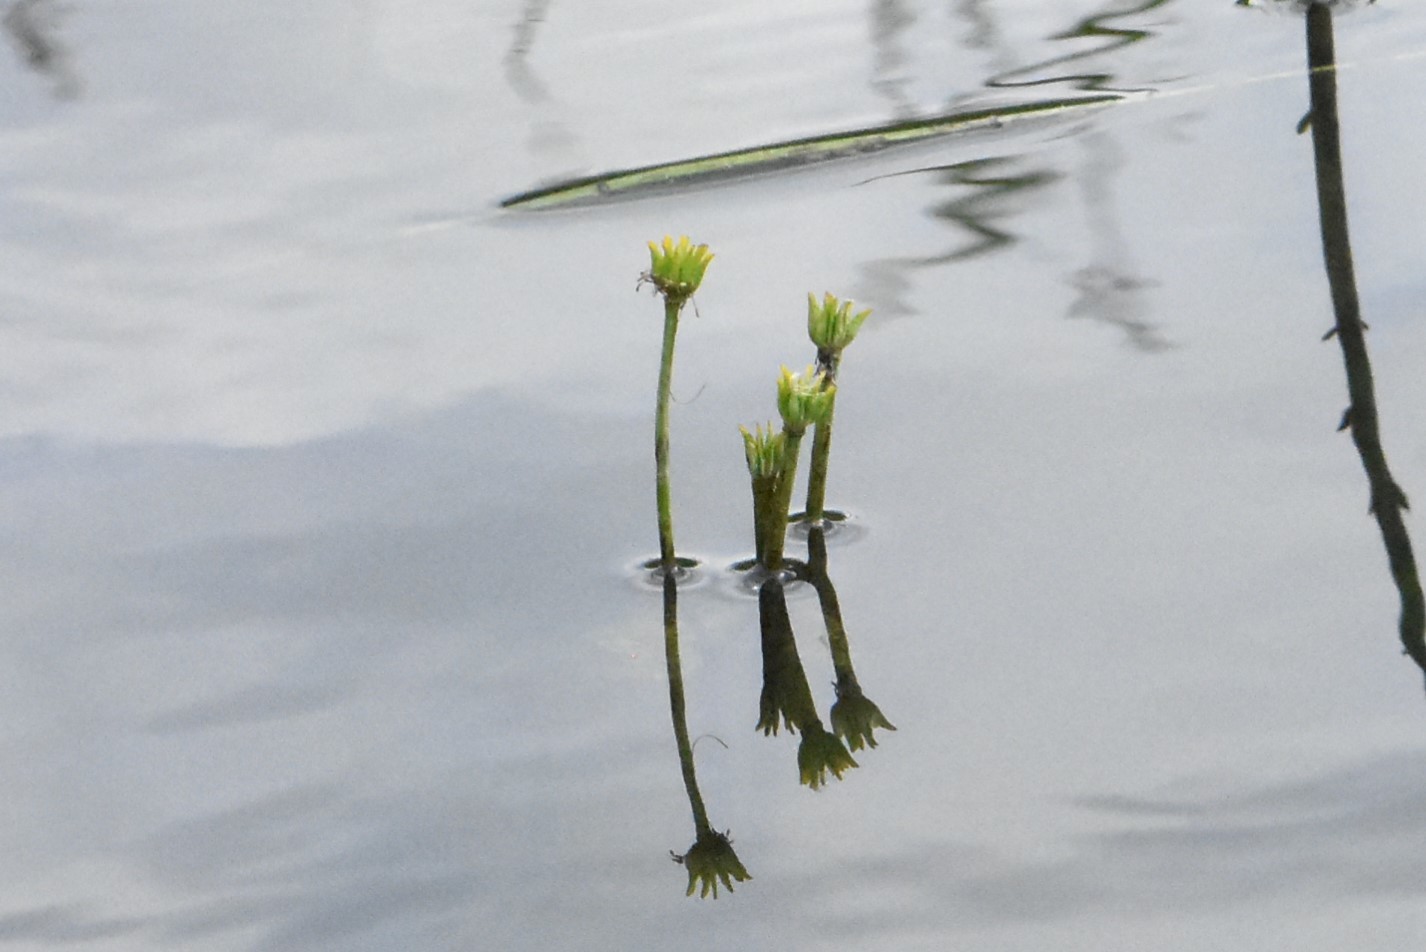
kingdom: Plantae
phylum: Tracheophyta
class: Magnoliopsida
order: Ranunculales
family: Ranunculaceae
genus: Caltha
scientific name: Caltha palustris
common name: Marsh marigold
